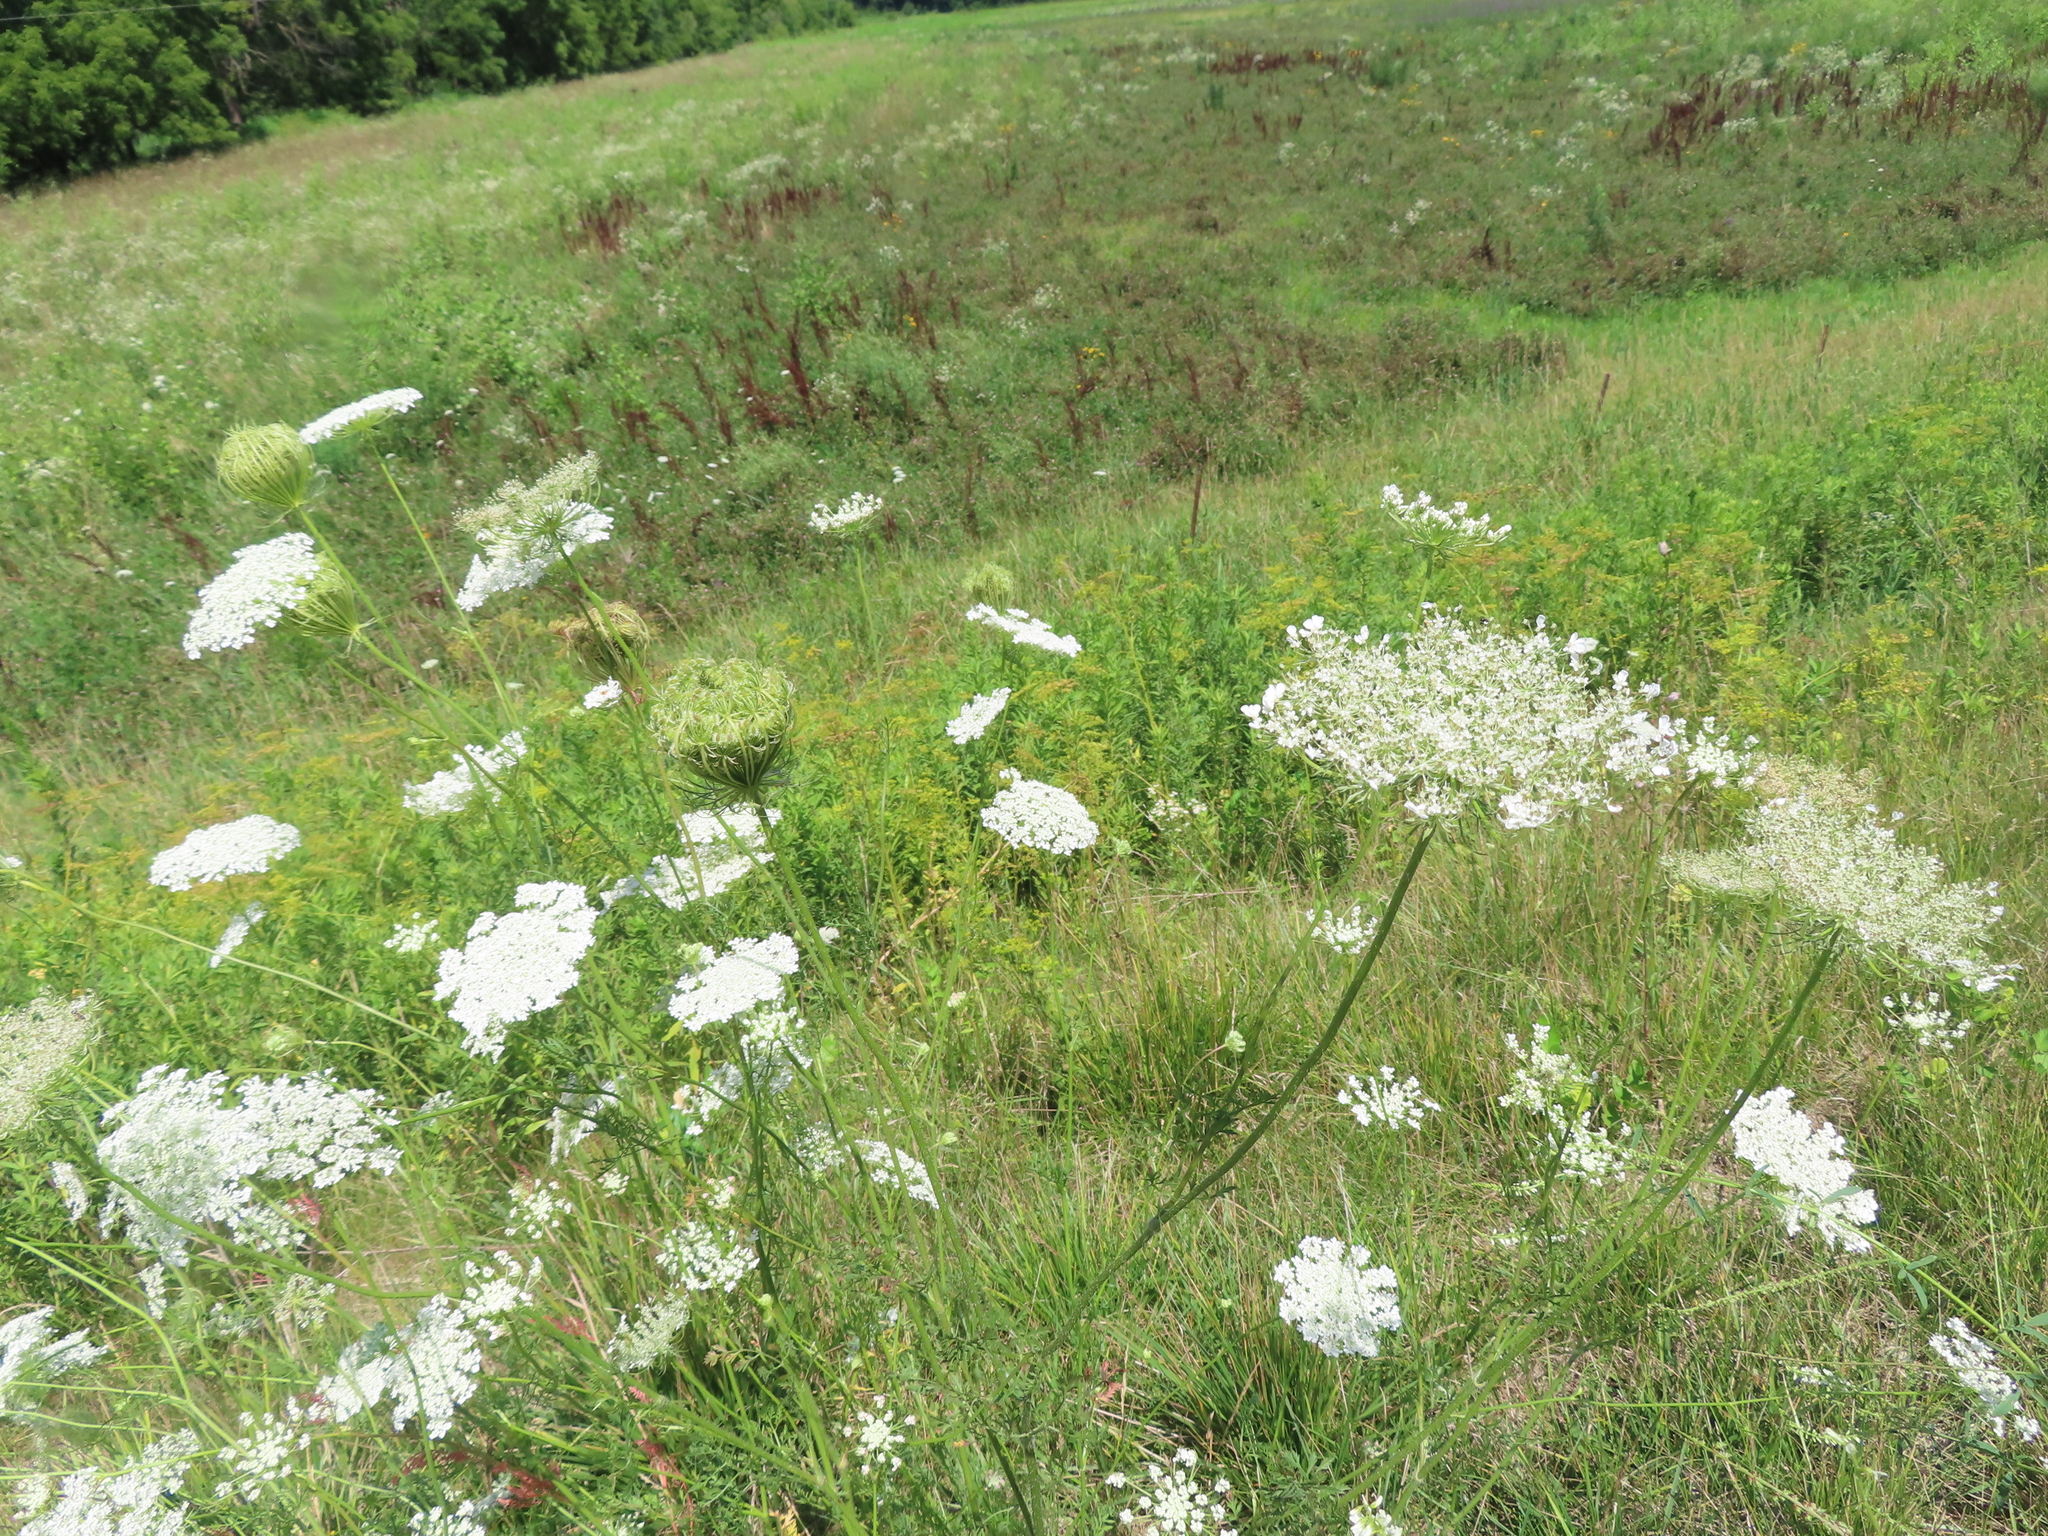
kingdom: Plantae
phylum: Tracheophyta
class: Magnoliopsida
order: Apiales
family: Apiaceae
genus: Daucus
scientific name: Daucus carota
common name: Wild carrot
